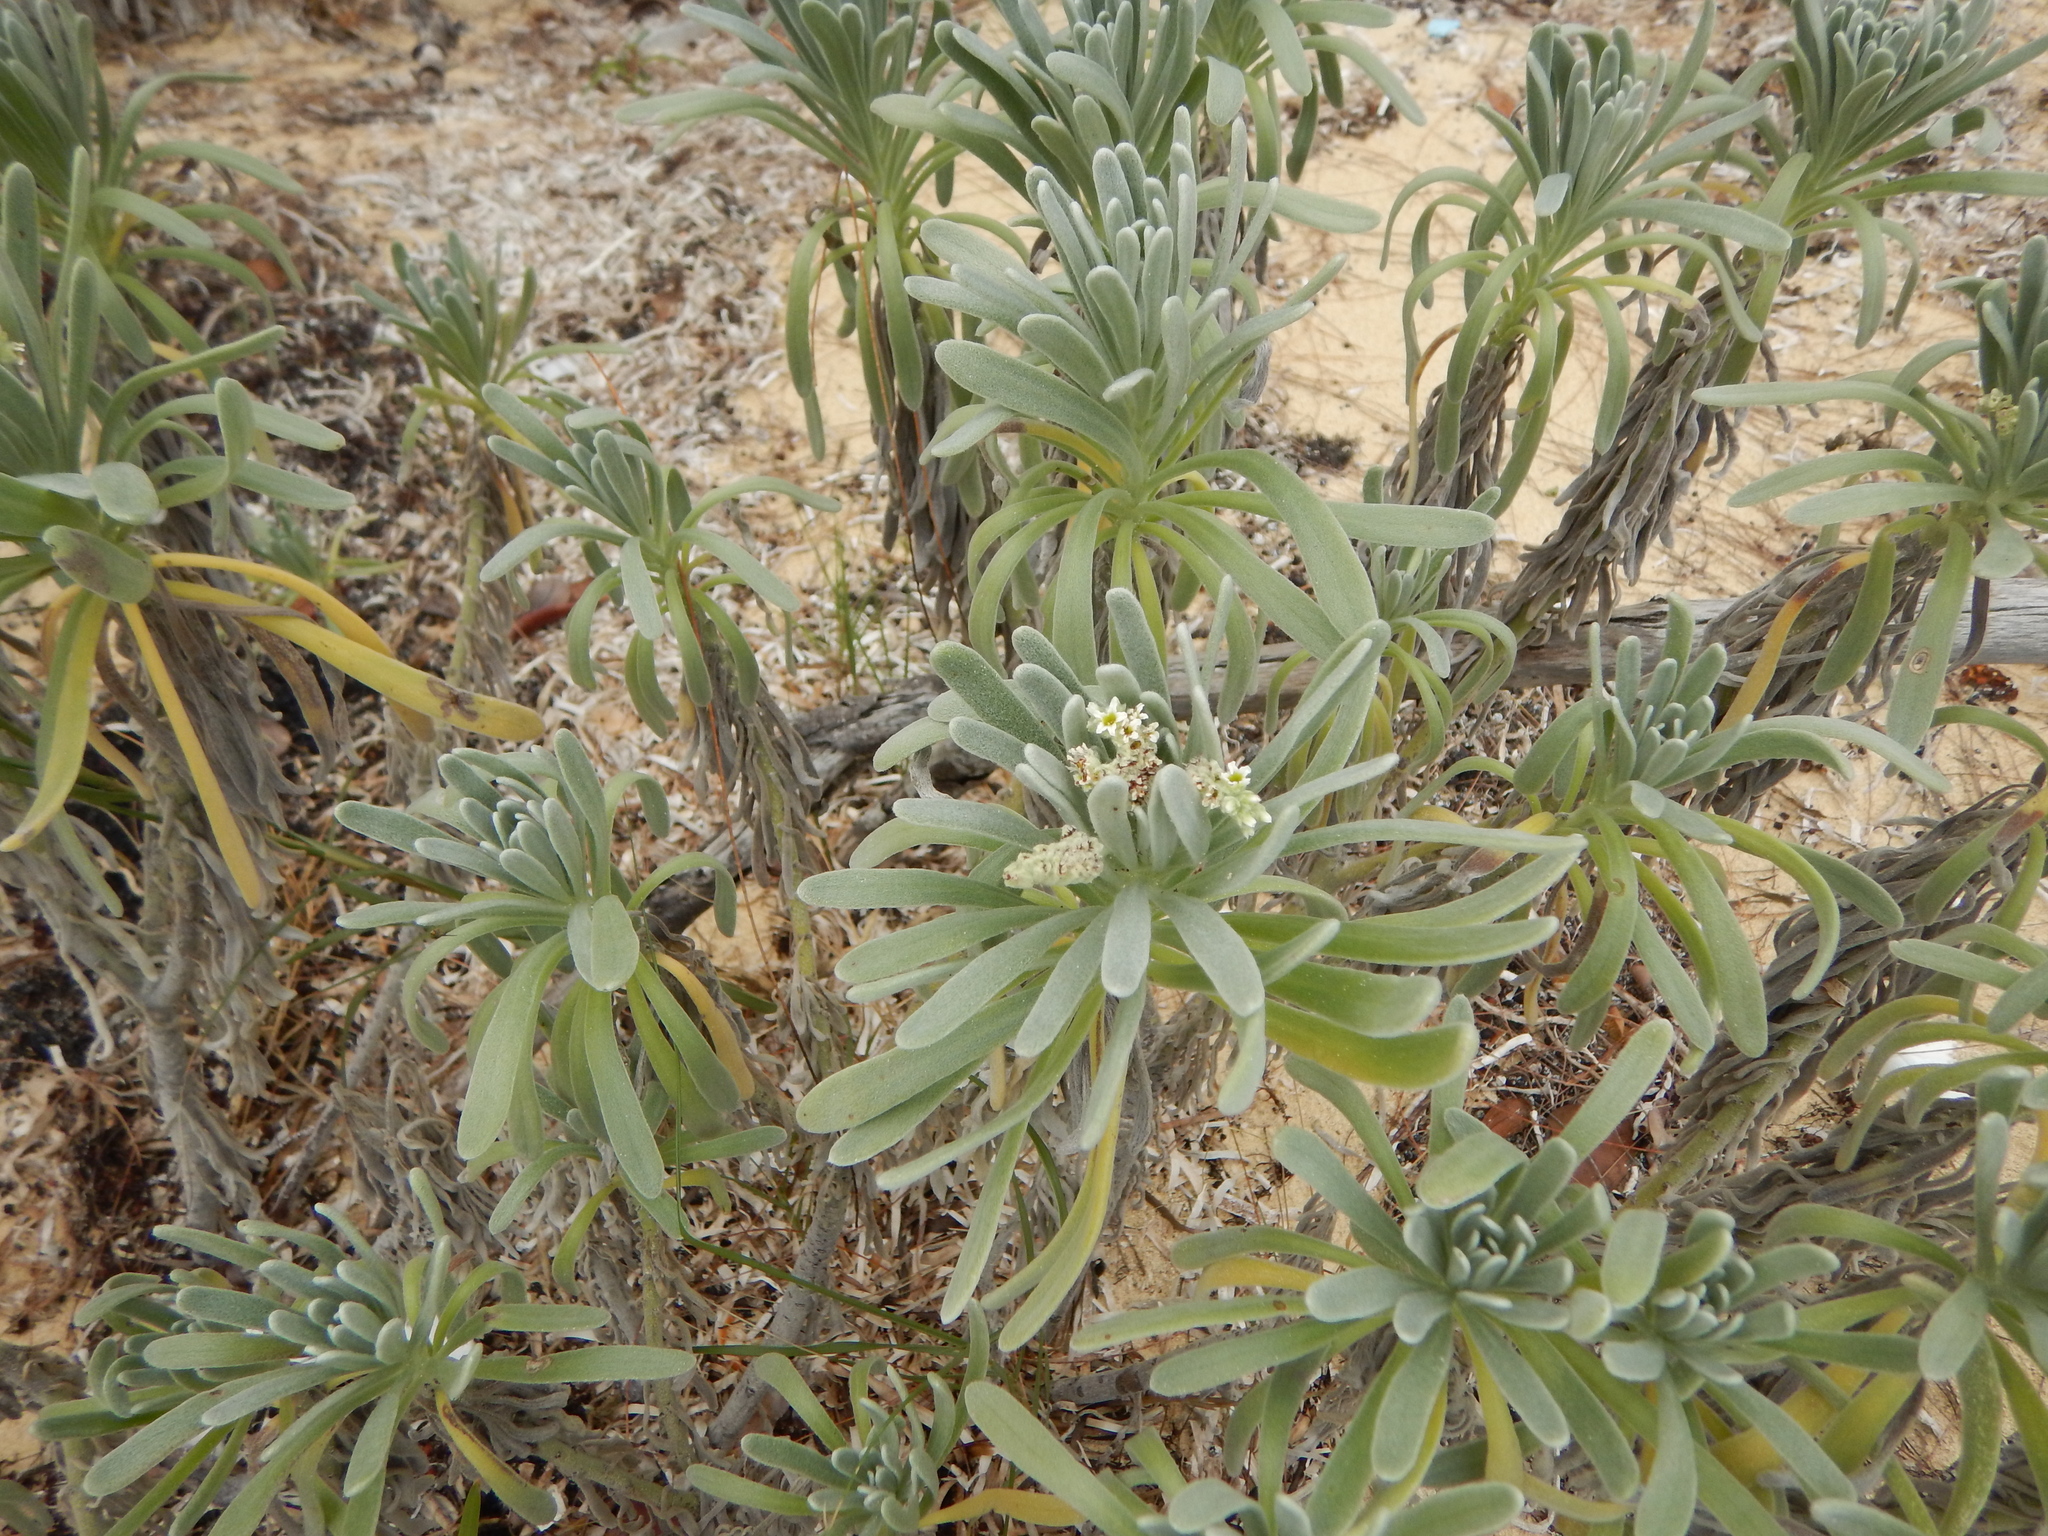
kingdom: Plantae
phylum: Tracheophyta
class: Magnoliopsida
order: Boraginales
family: Heliotropiaceae
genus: Tournefortia
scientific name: Tournefortia gnaphalodes
